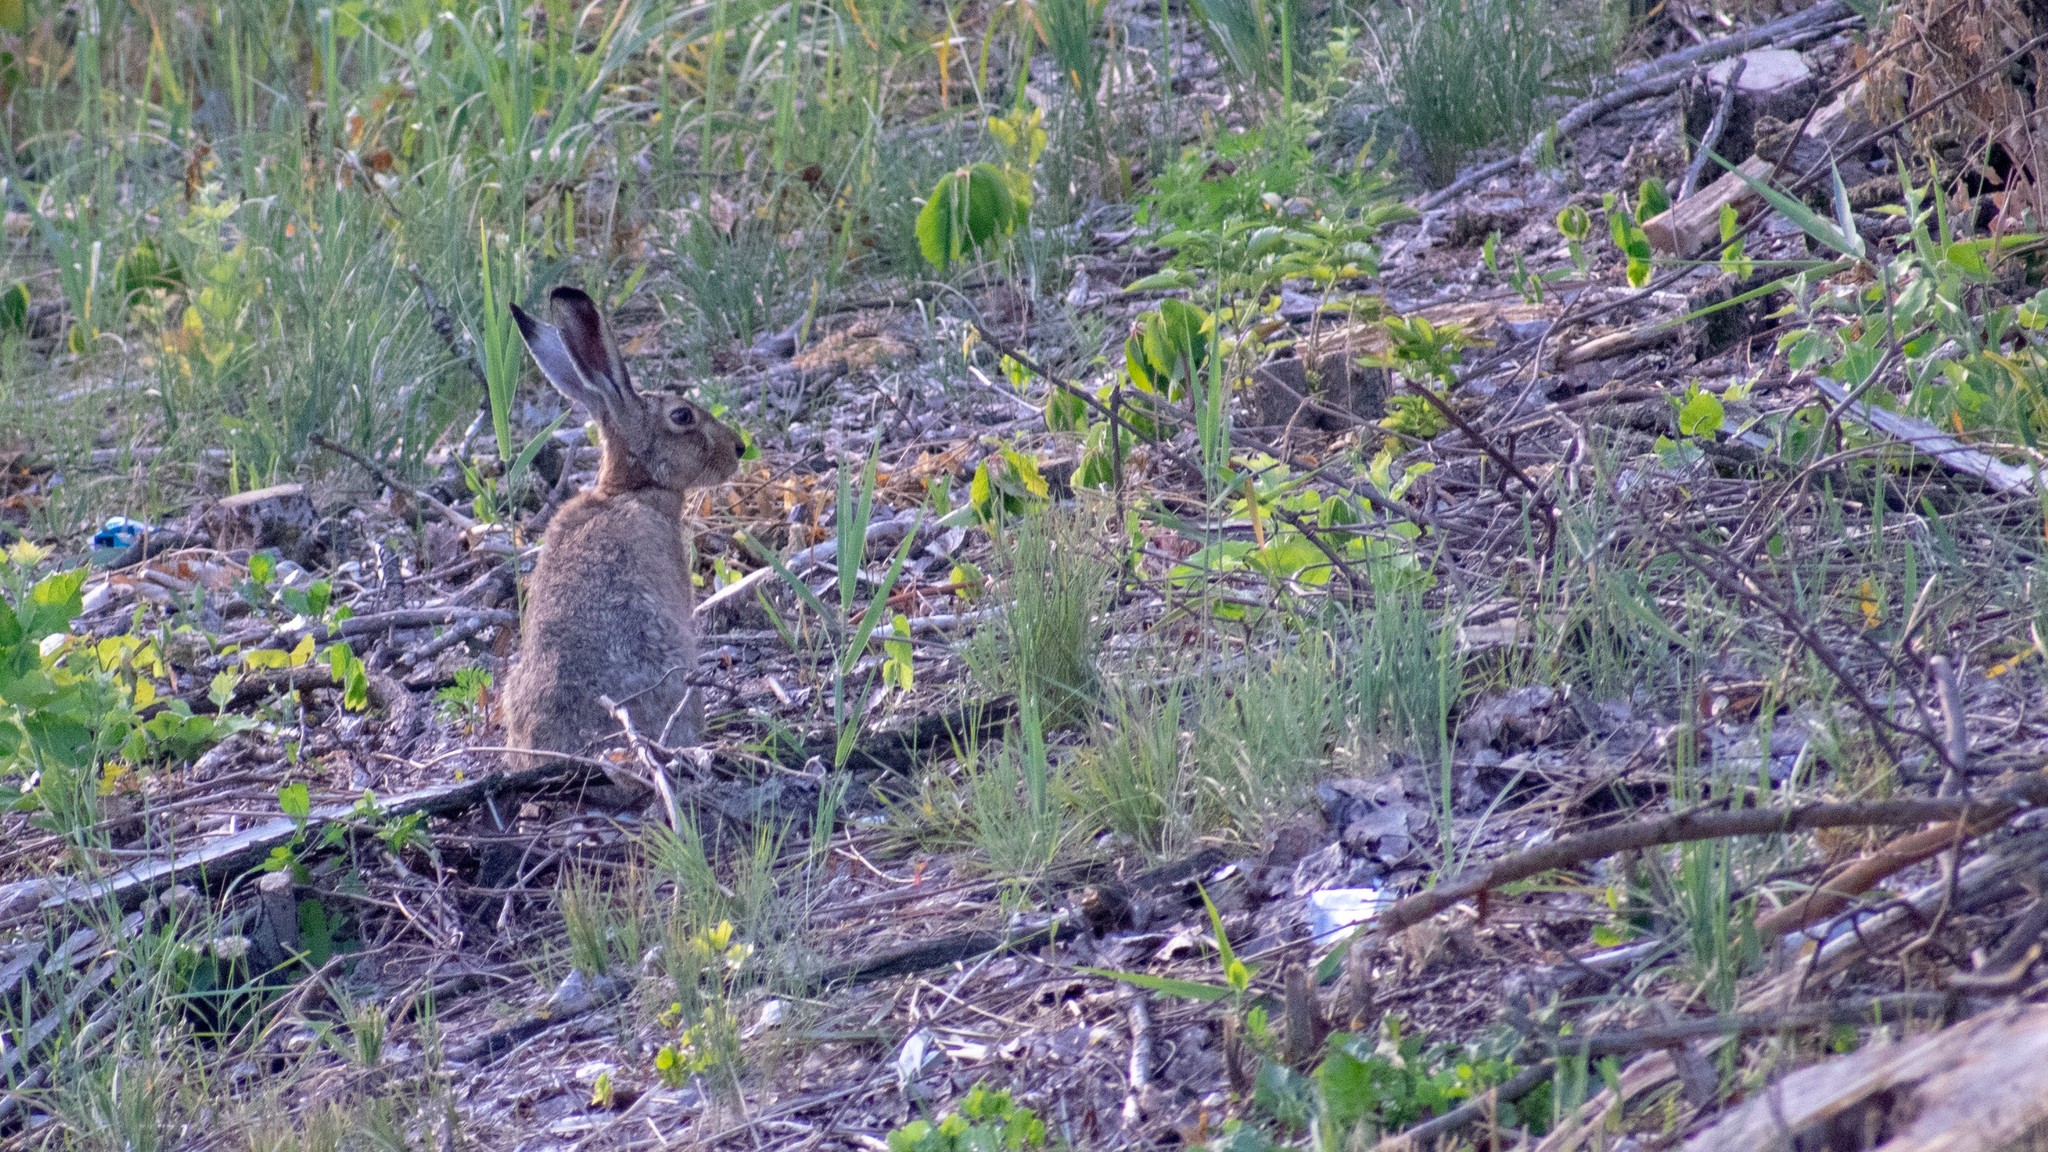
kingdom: Animalia
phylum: Chordata
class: Mammalia
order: Lagomorpha
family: Leporidae
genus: Lepus
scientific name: Lepus europaeus
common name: European hare
